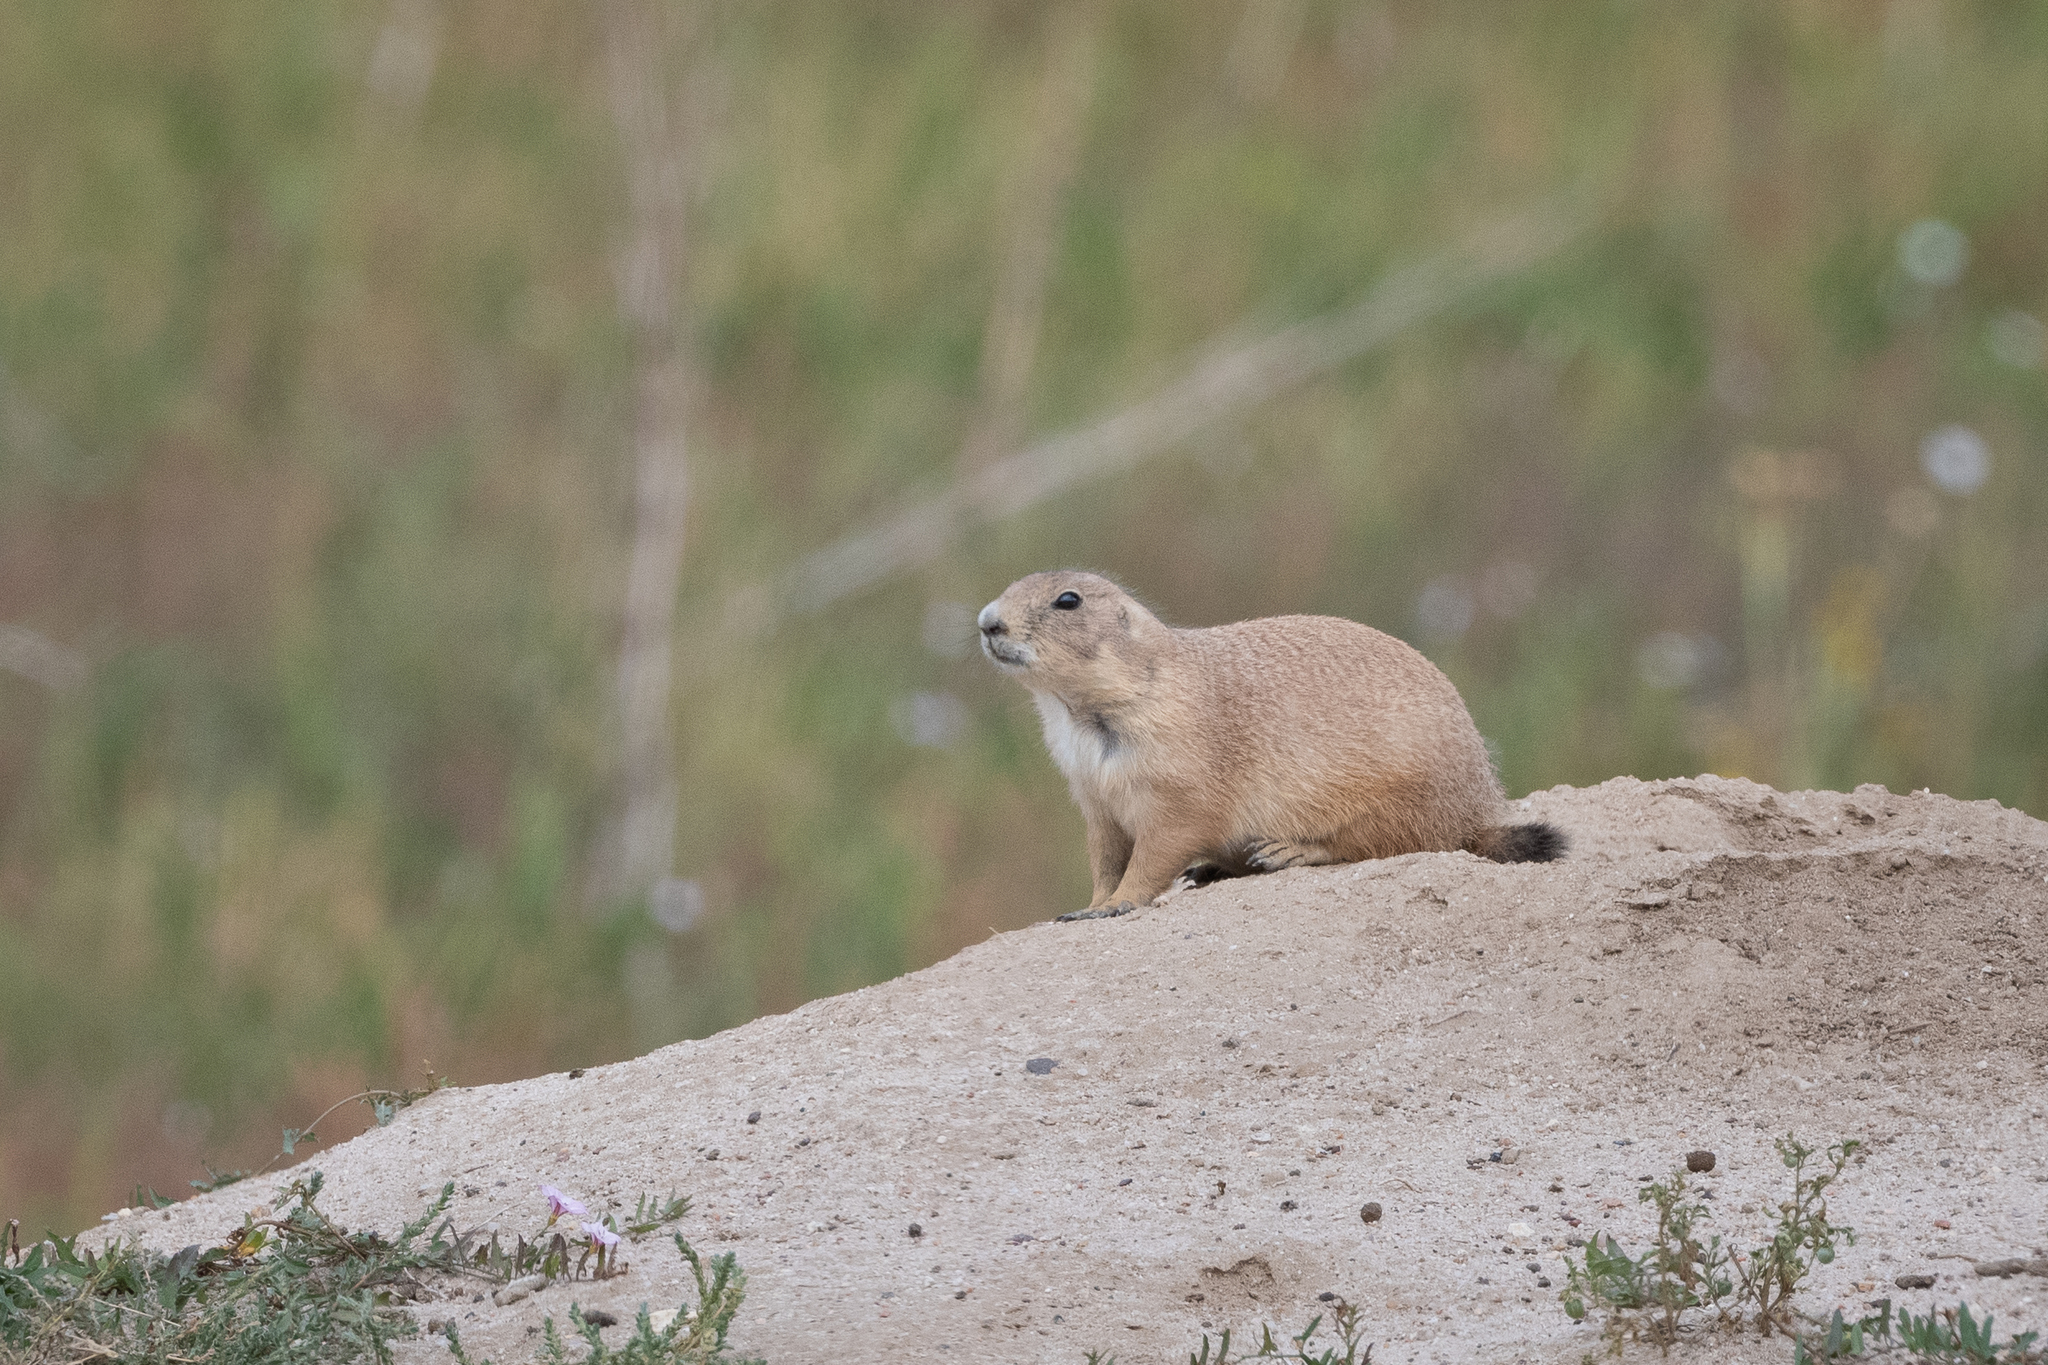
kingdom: Animalia
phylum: Chordata
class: Mammalia
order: Rodentia
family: Sciuridae
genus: Cynomys
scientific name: Cynomys ludovicianus
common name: Black-tailed prairie dog
